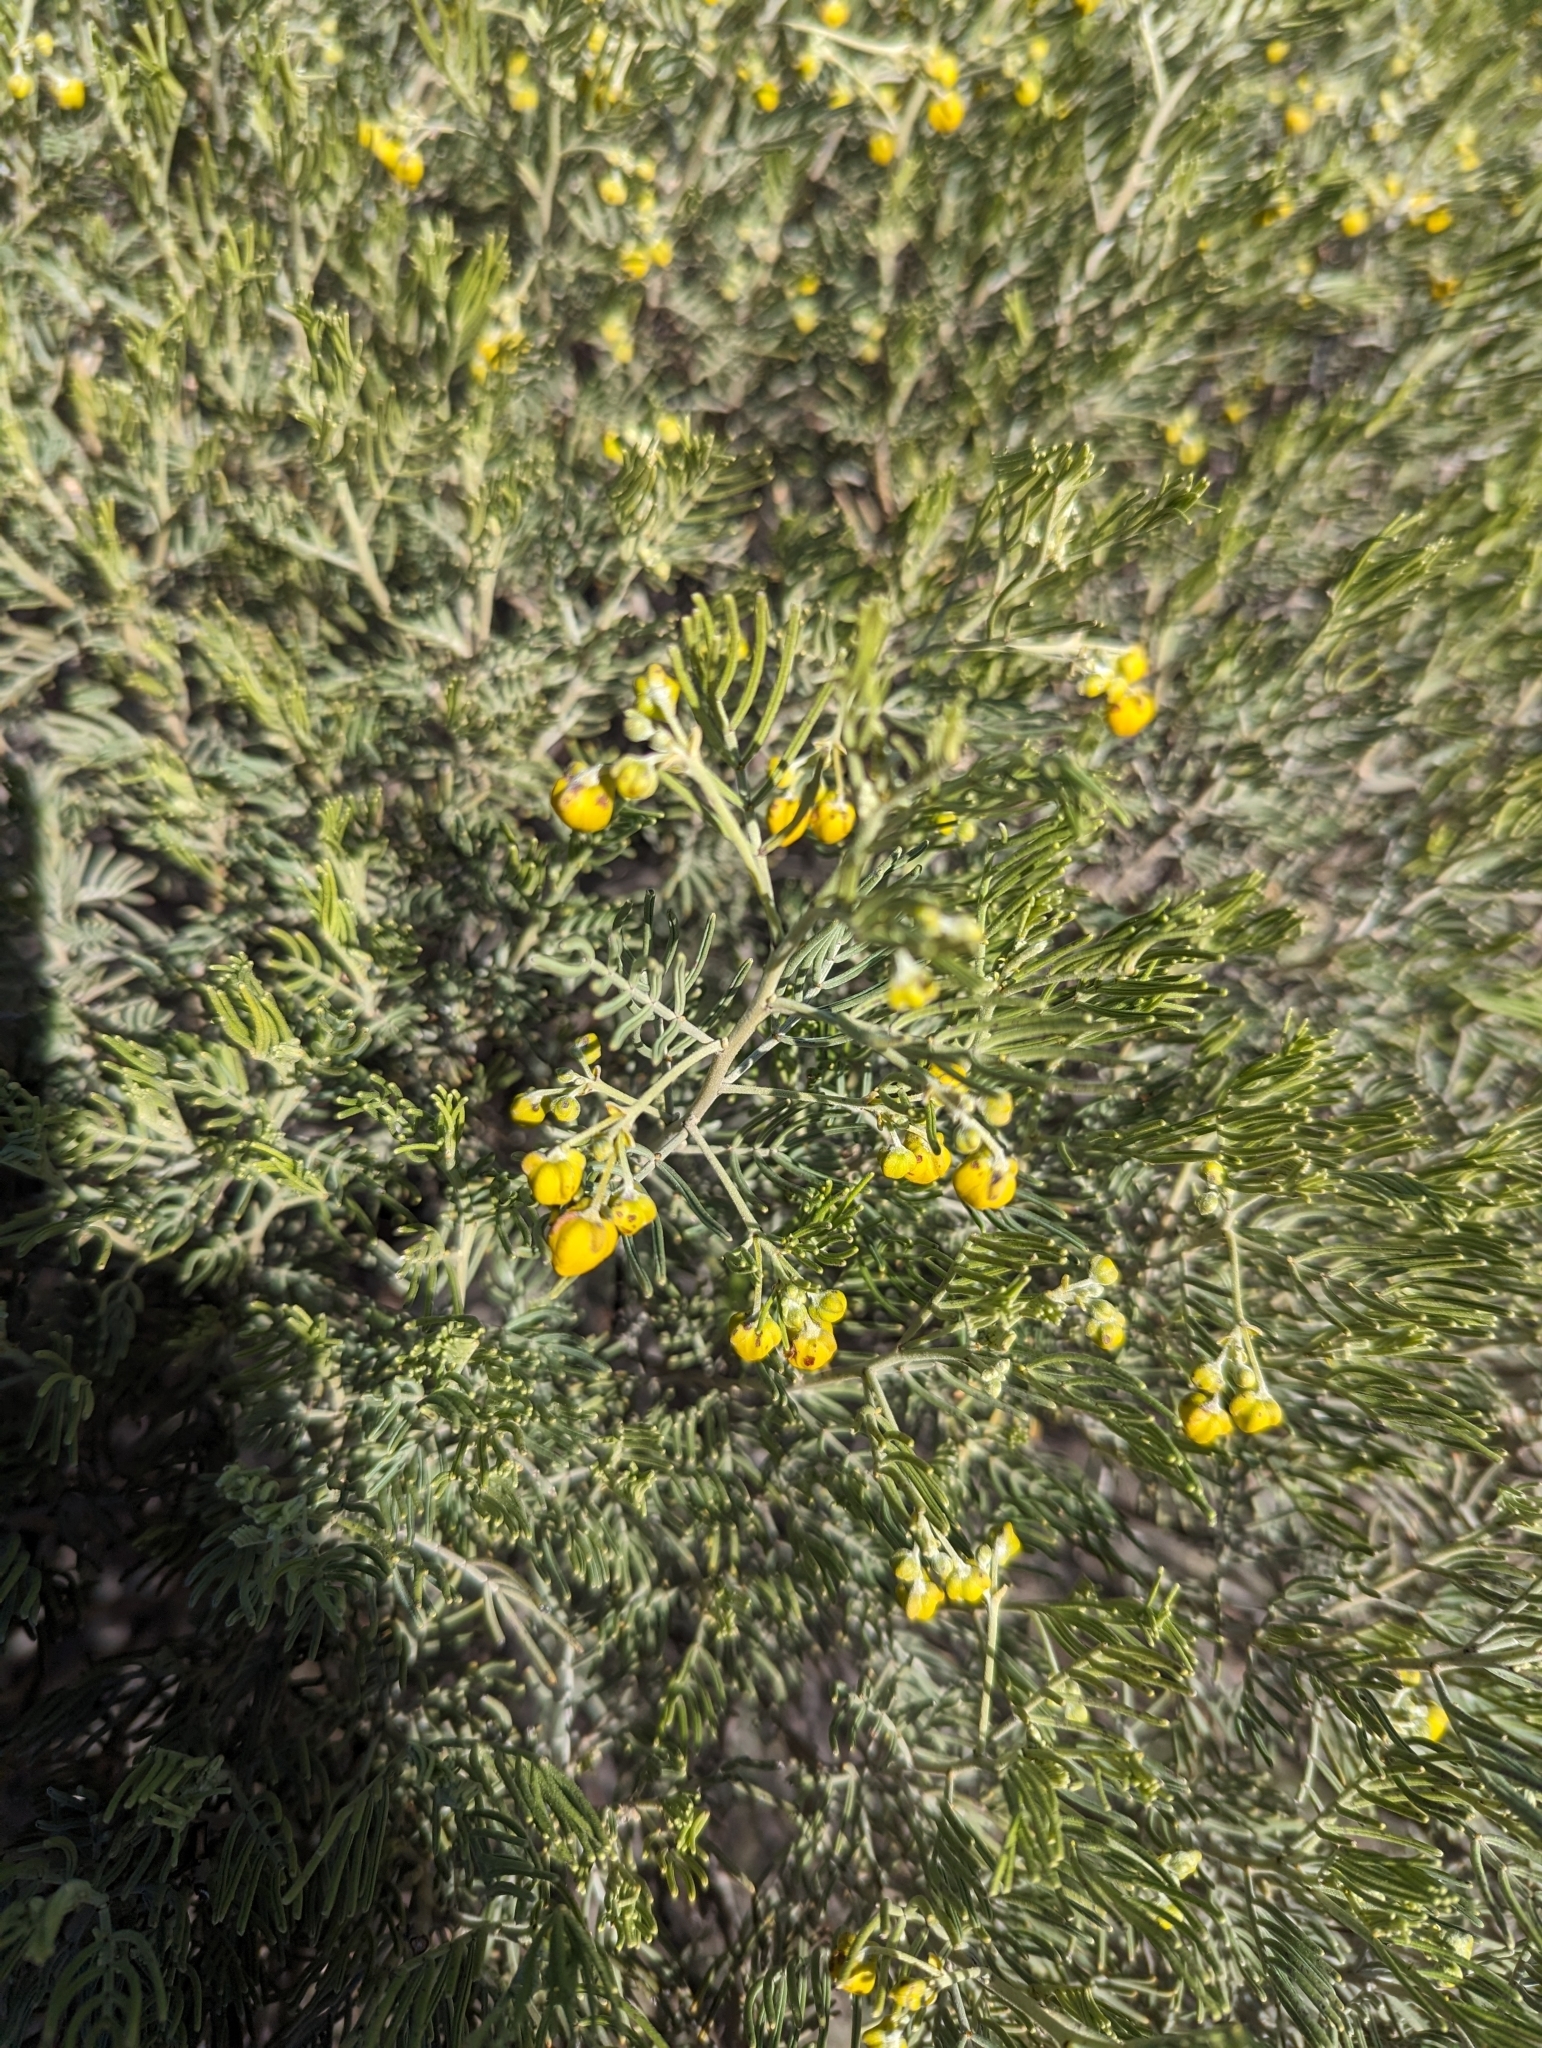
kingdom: Plantae
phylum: Tracheophyta
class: Magnoliopsida
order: Fabales
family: Fabaceae
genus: Senna
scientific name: Senna artemisioides
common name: Burnt-leaved acacia
